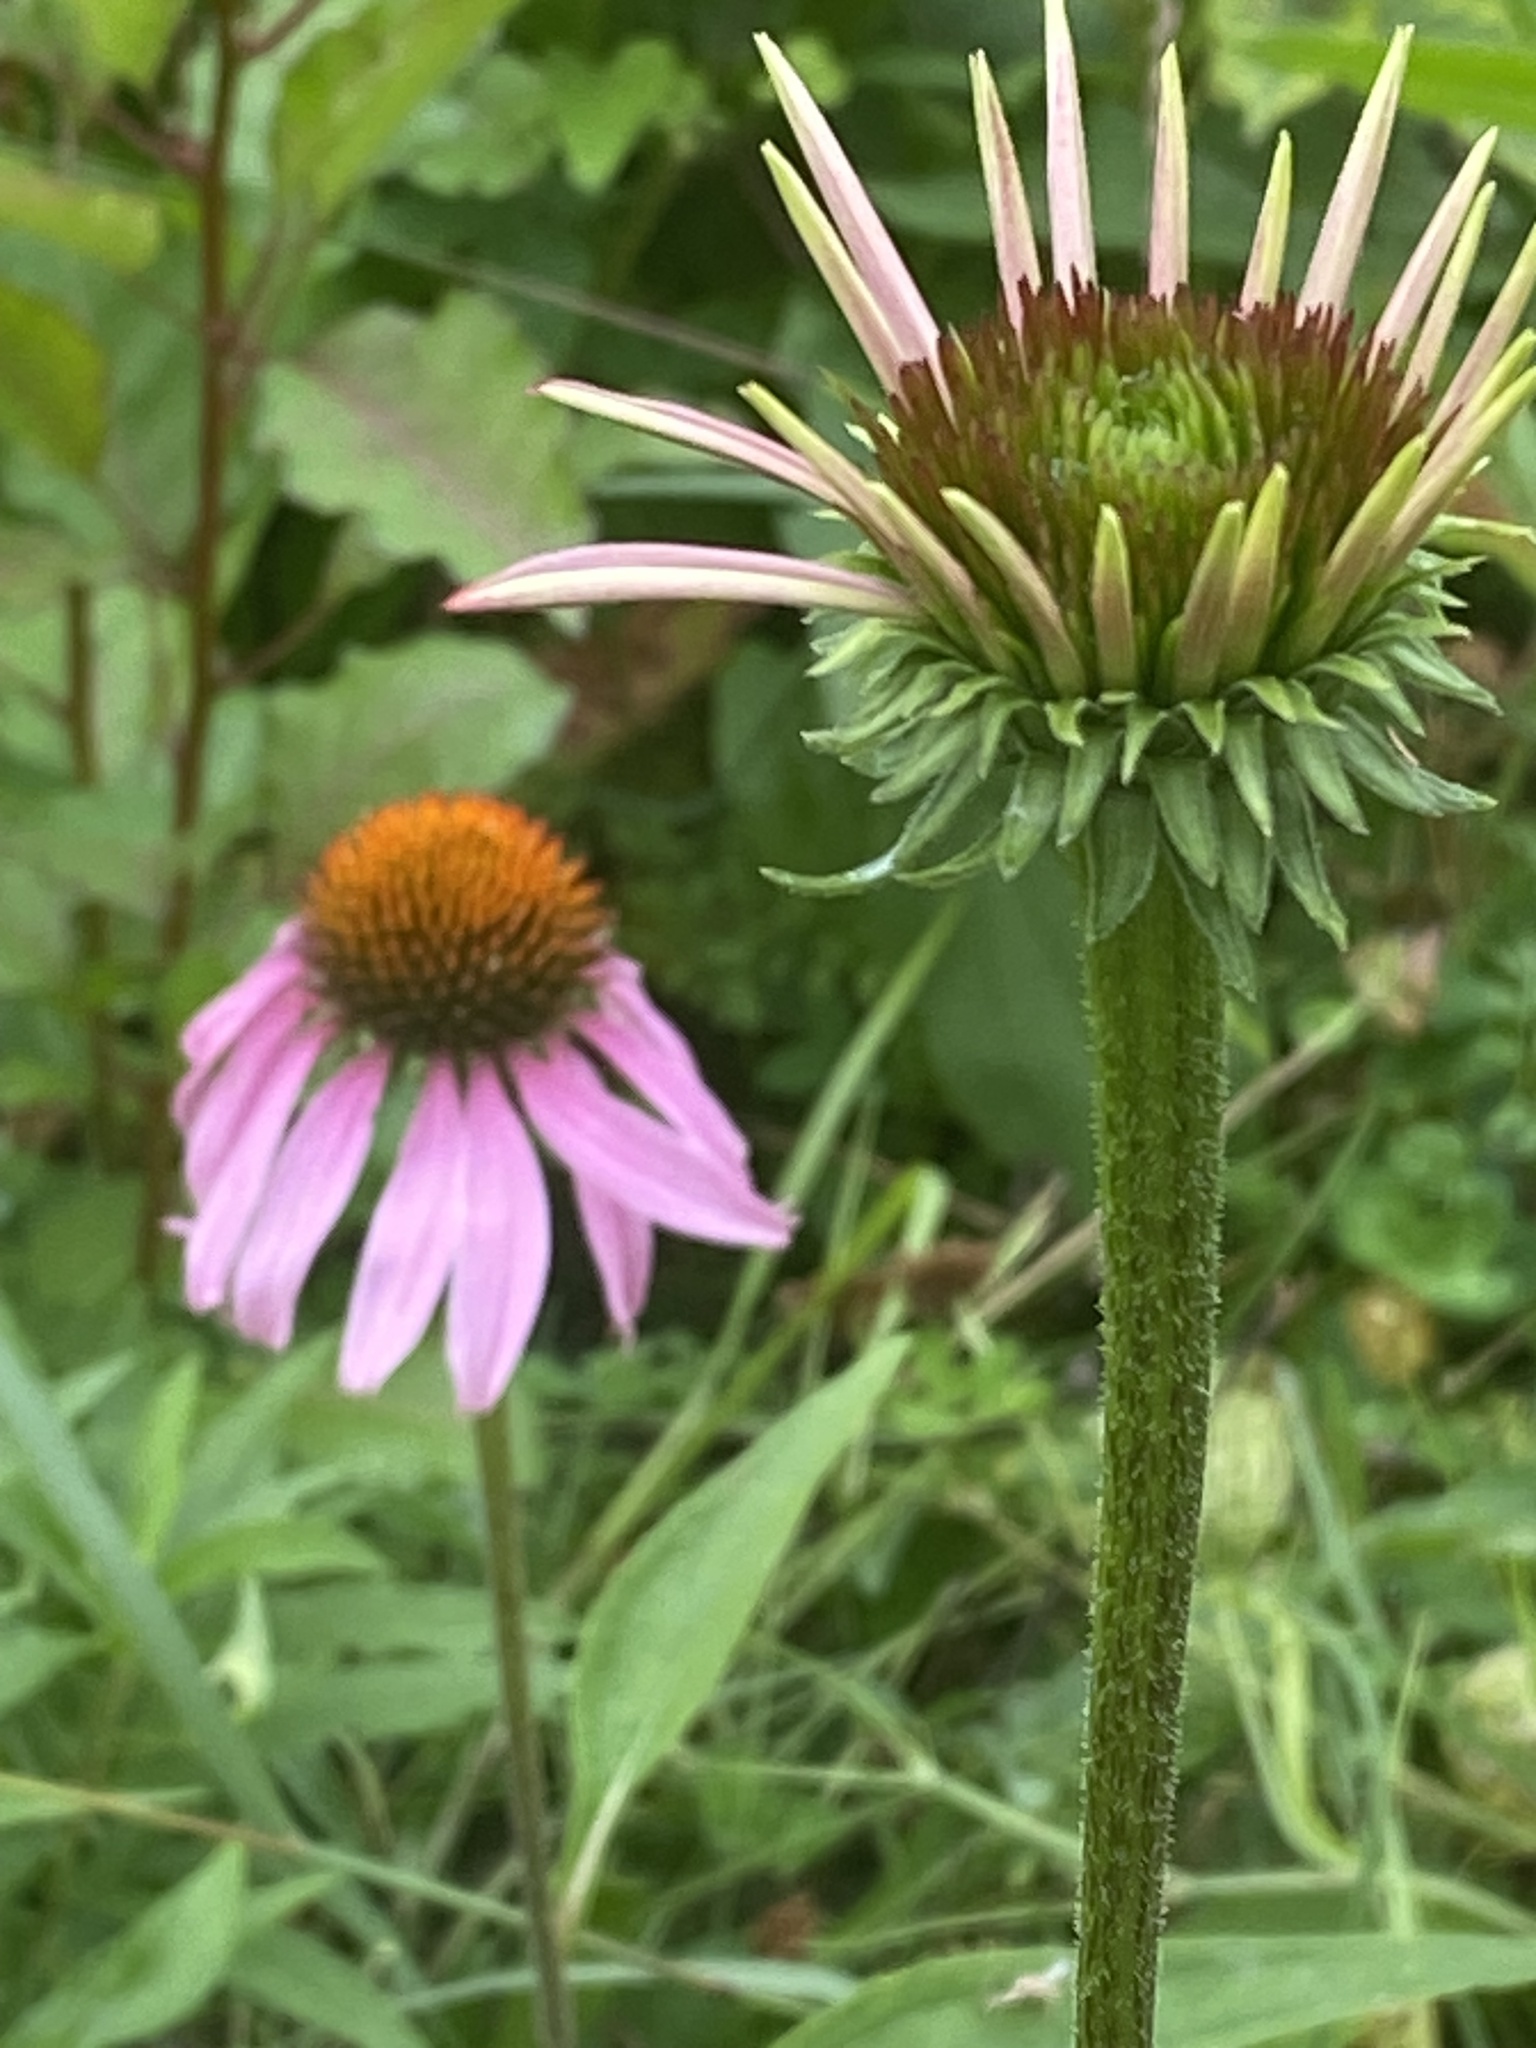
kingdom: Plantae
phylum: Tracheophyta
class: Magnoliopsida
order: Asterales
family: Asteraceae
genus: Echinacea
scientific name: Echinacea purpurea
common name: Broad-leaved purple coneflower
